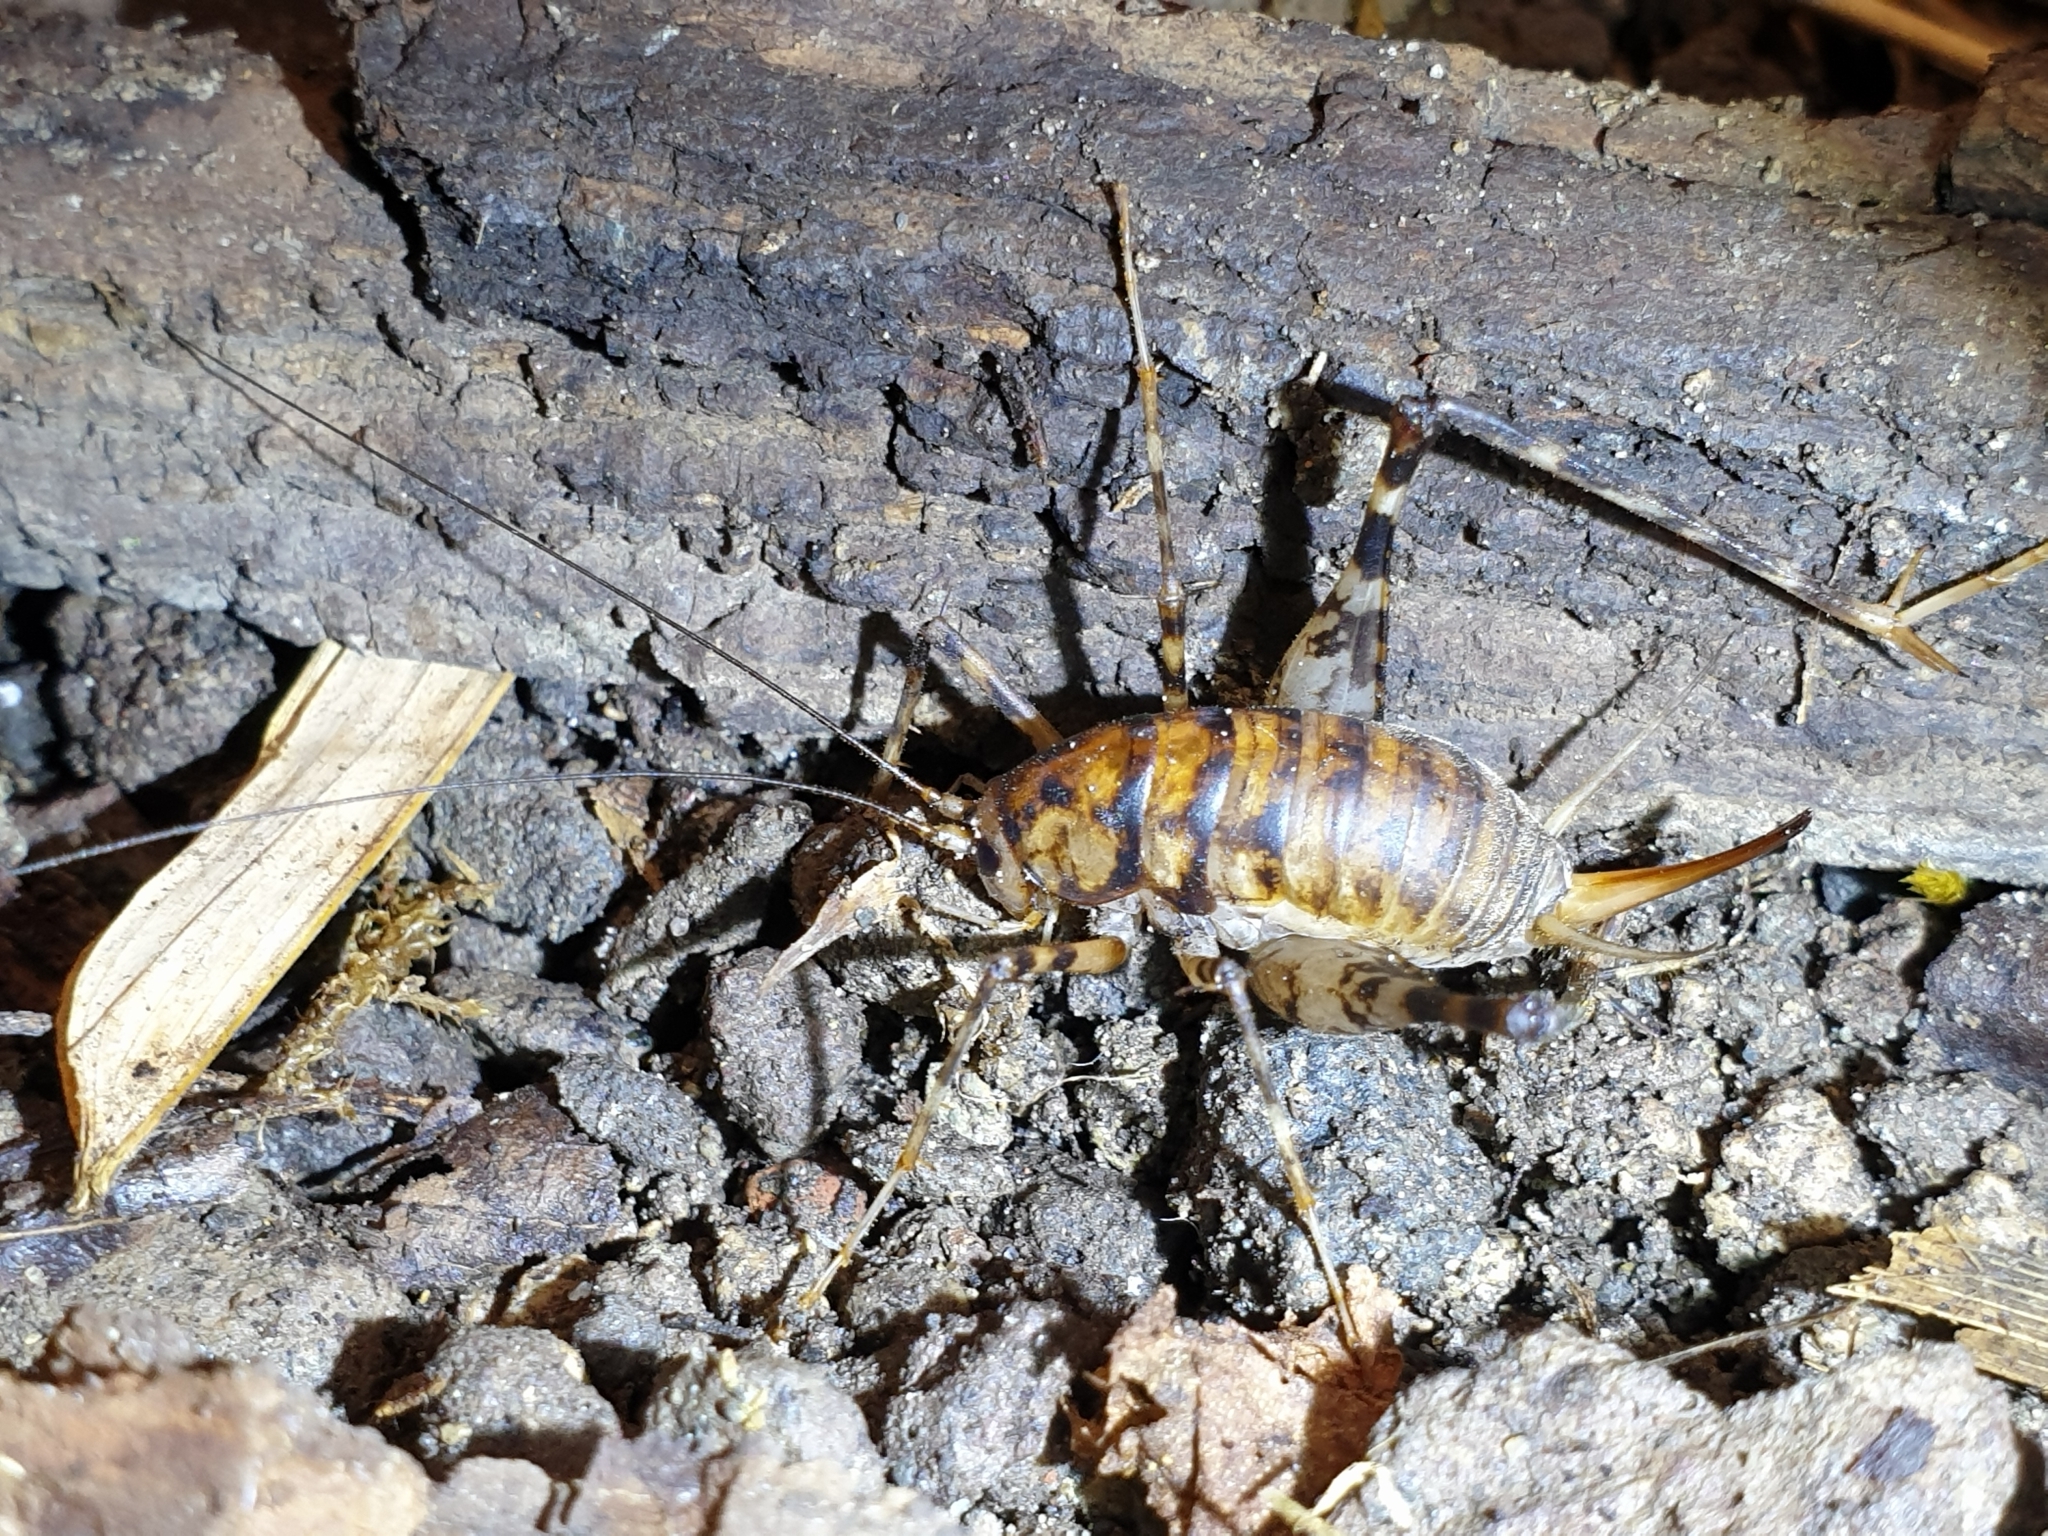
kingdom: Animalia
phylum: Arthropoda
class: Insecta
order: Orthoptera
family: Rhaphidophoridae
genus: Tachycines
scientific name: Tachycines asynamorus
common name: Greenhouse camel cricket
